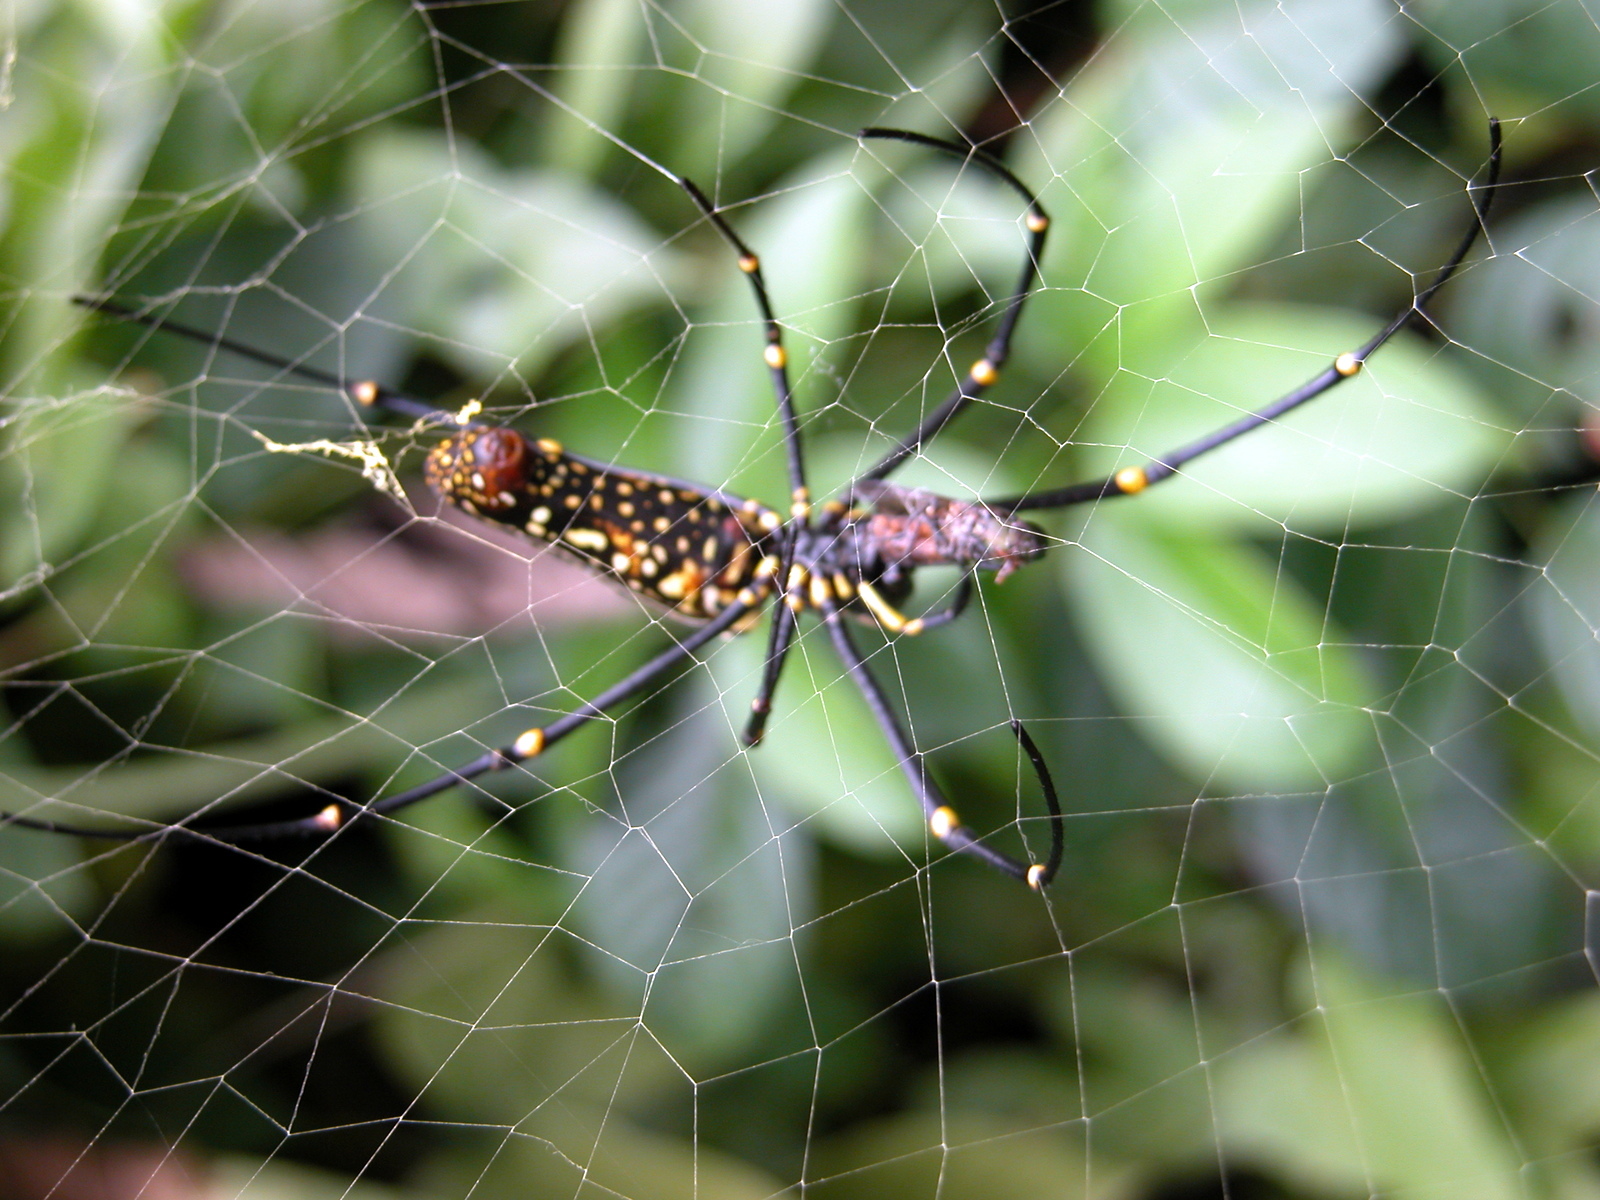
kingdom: Animalia
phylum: Arthropoda
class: Arachnida
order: Araneae
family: Araneidae
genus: Nephila
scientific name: Nephila pilipes
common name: Giant golden orb weaver
